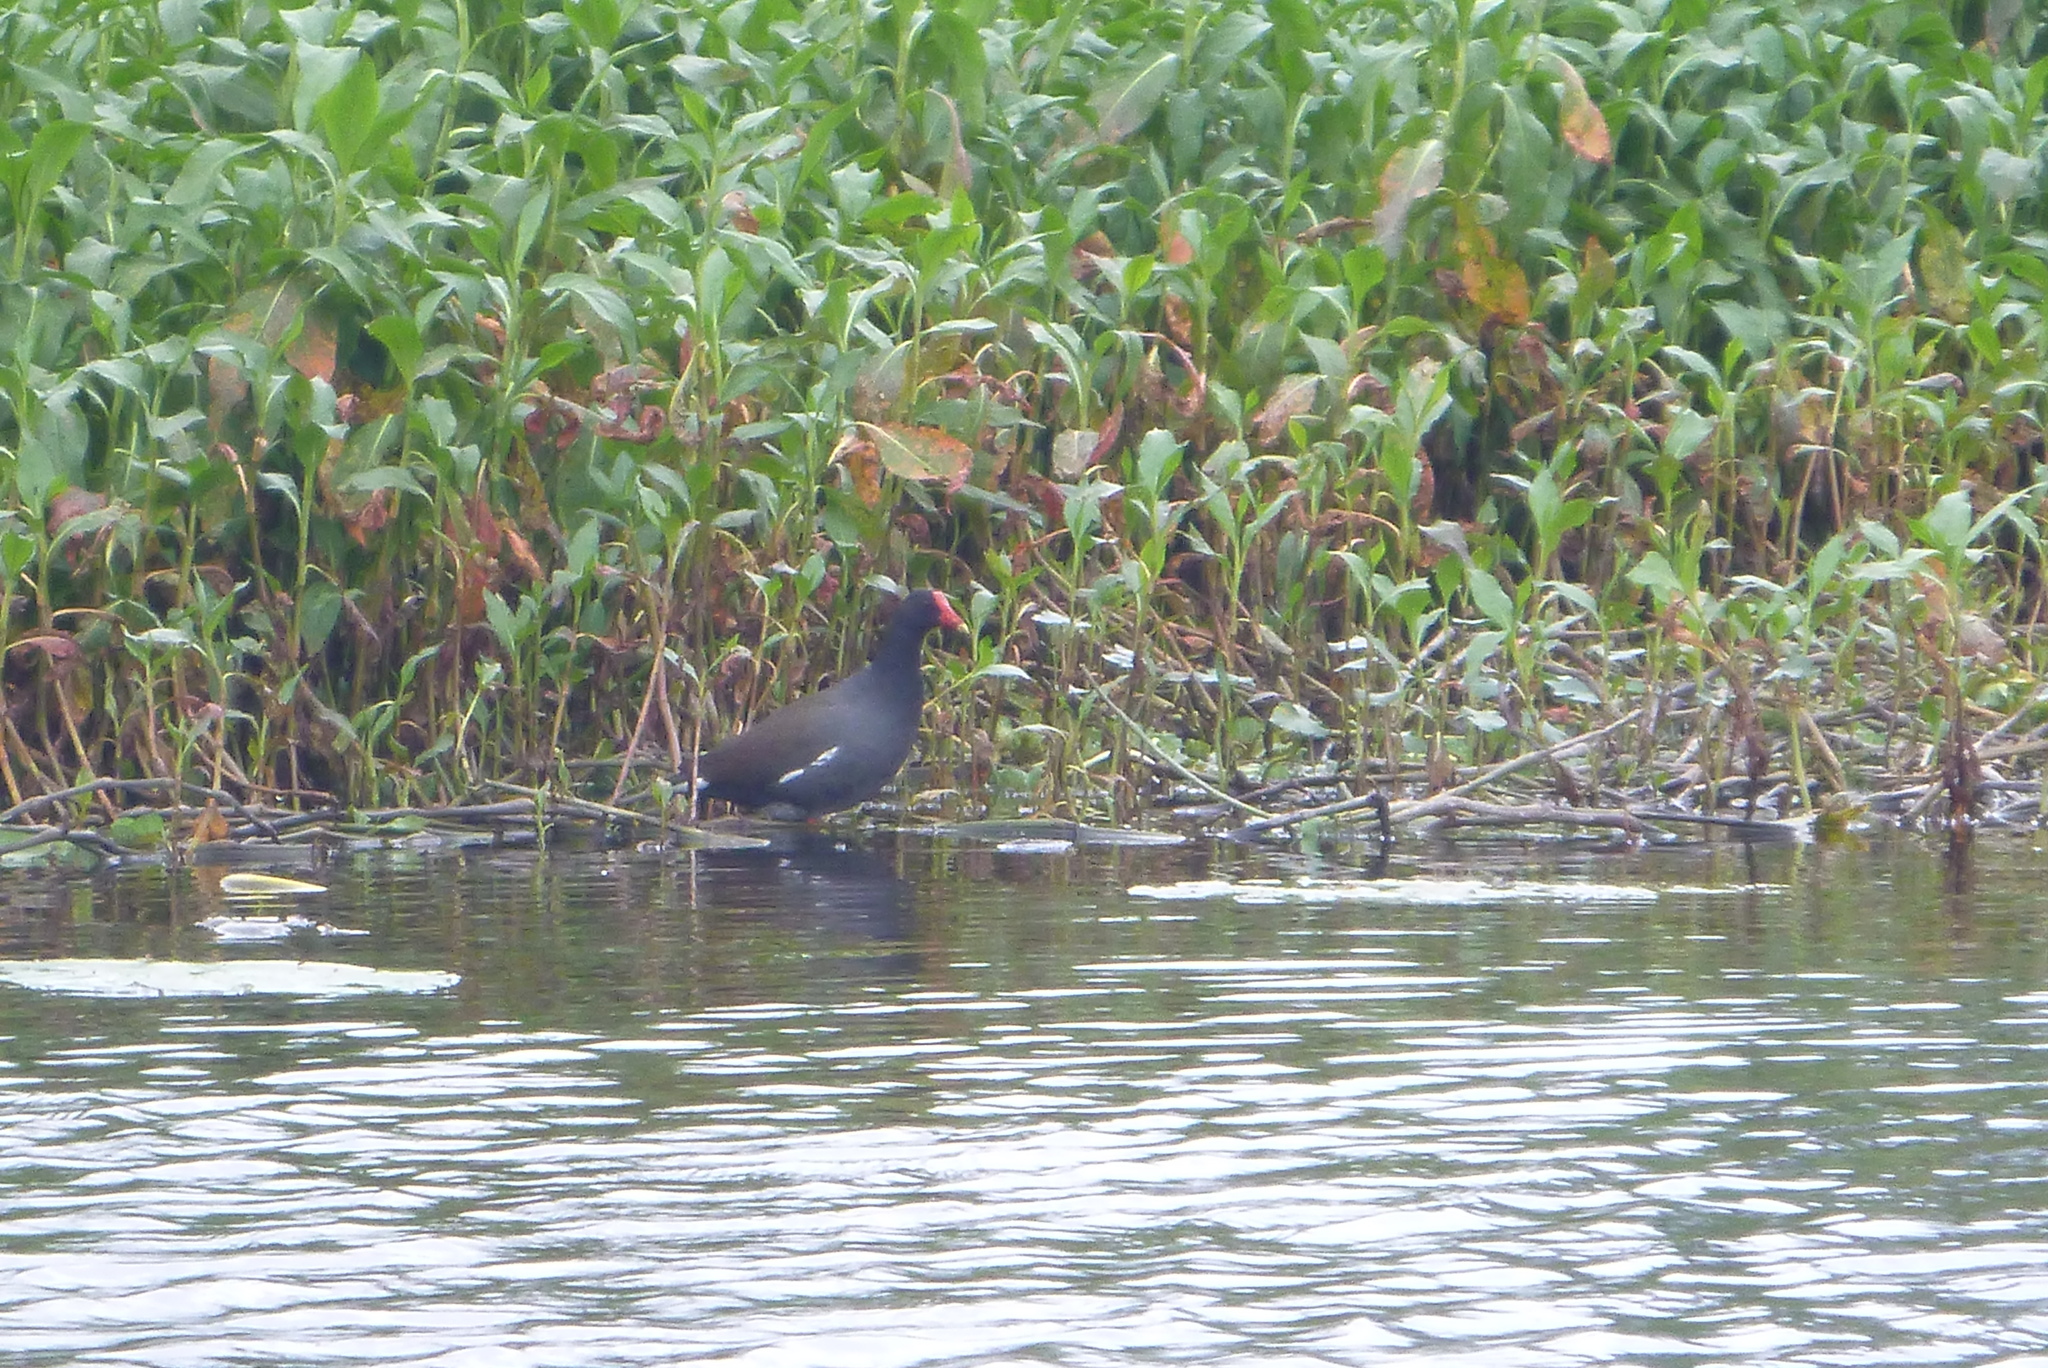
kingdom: Animalia
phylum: Chordata
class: Aves
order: Gruiformes
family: Rallidae
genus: Gallinula
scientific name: Gallinula chloropus
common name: Common moorhen
